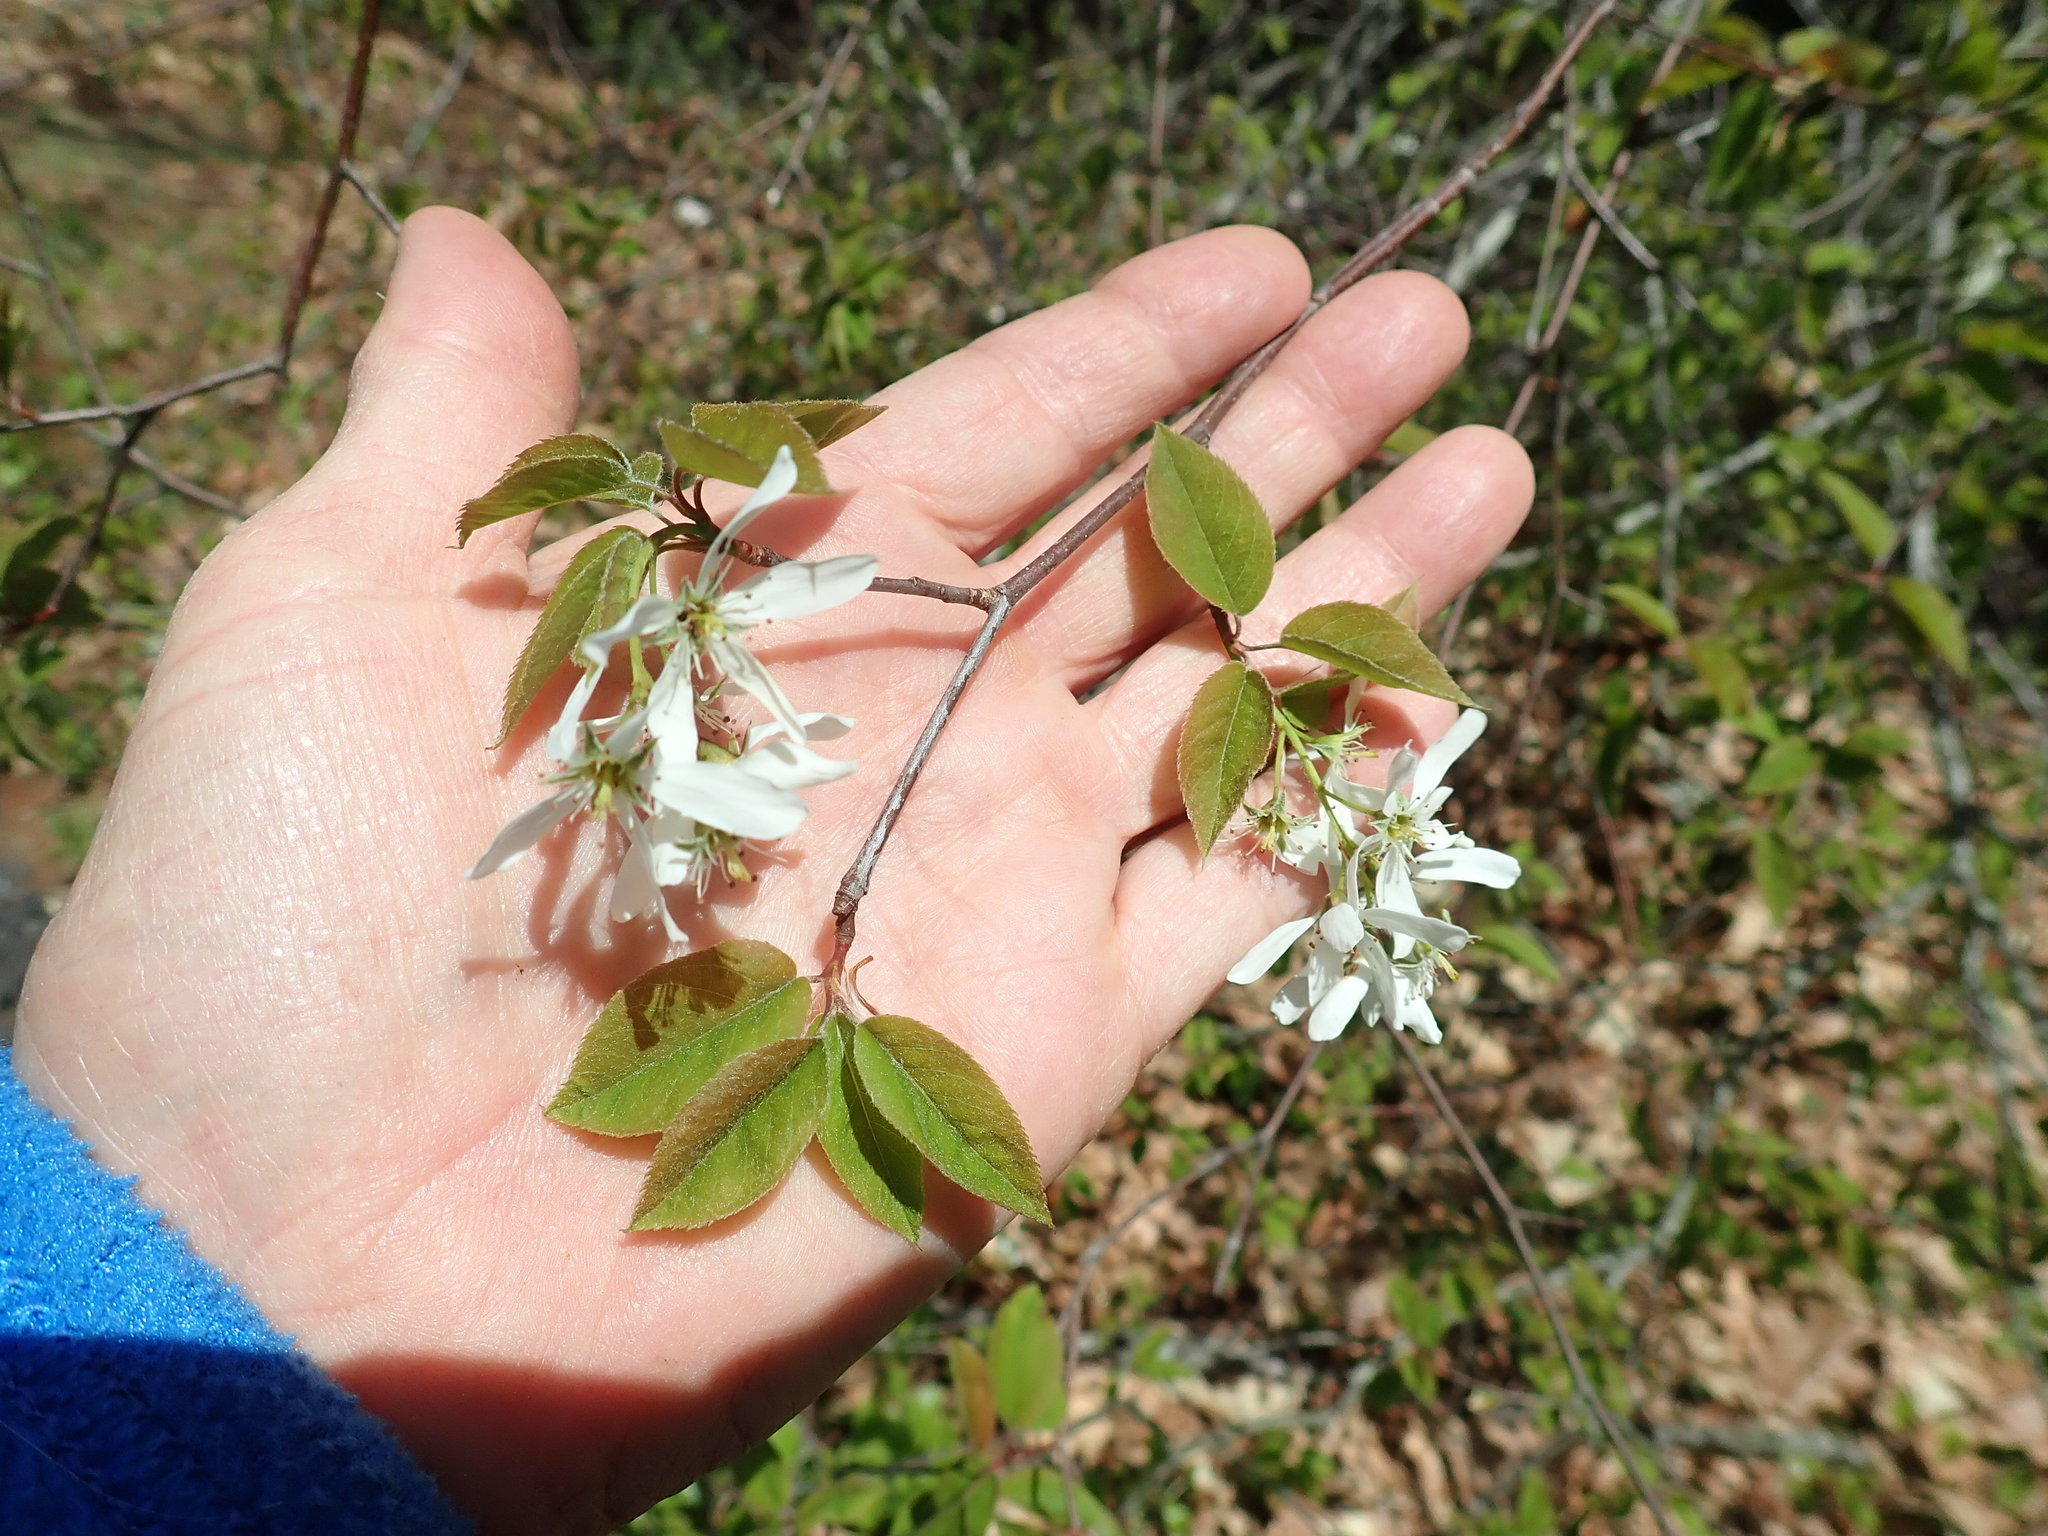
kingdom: Plantae
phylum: Tracheophyta
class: Magnoliopsida
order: Rosales
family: Rosaceae
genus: Amelanchier
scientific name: Amelanchier
